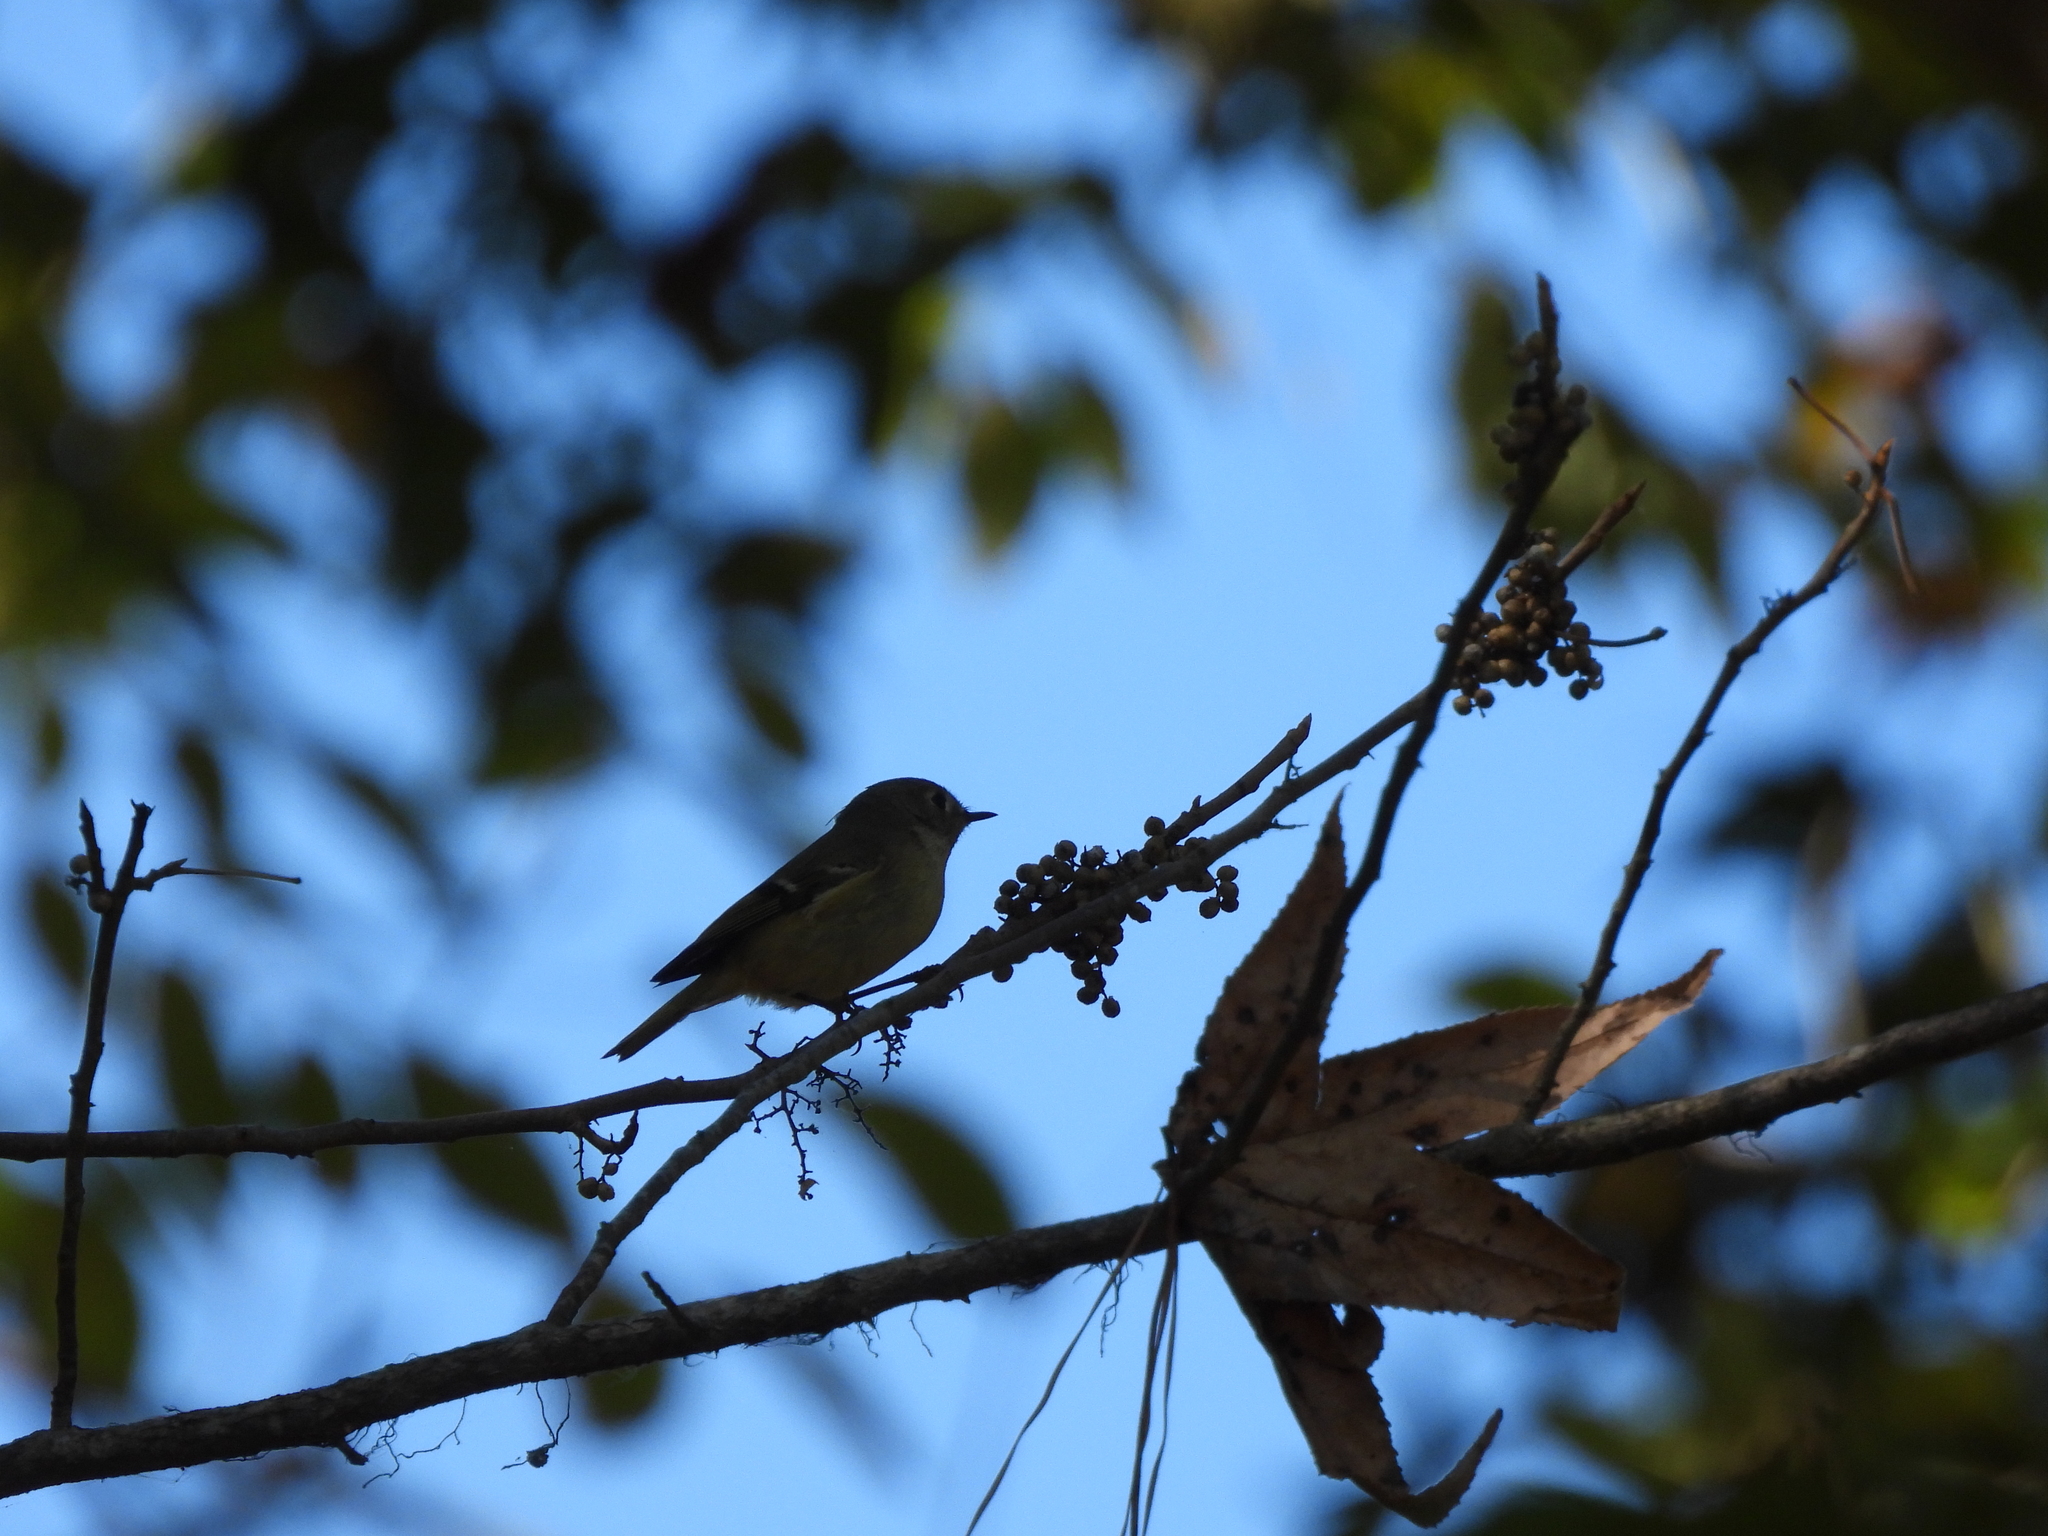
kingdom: Animalia
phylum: Chordata
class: Aves
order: Passeriformes
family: Regulidae
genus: Regulus
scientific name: Regulus calendula
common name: Ruby-crowned kinglet
